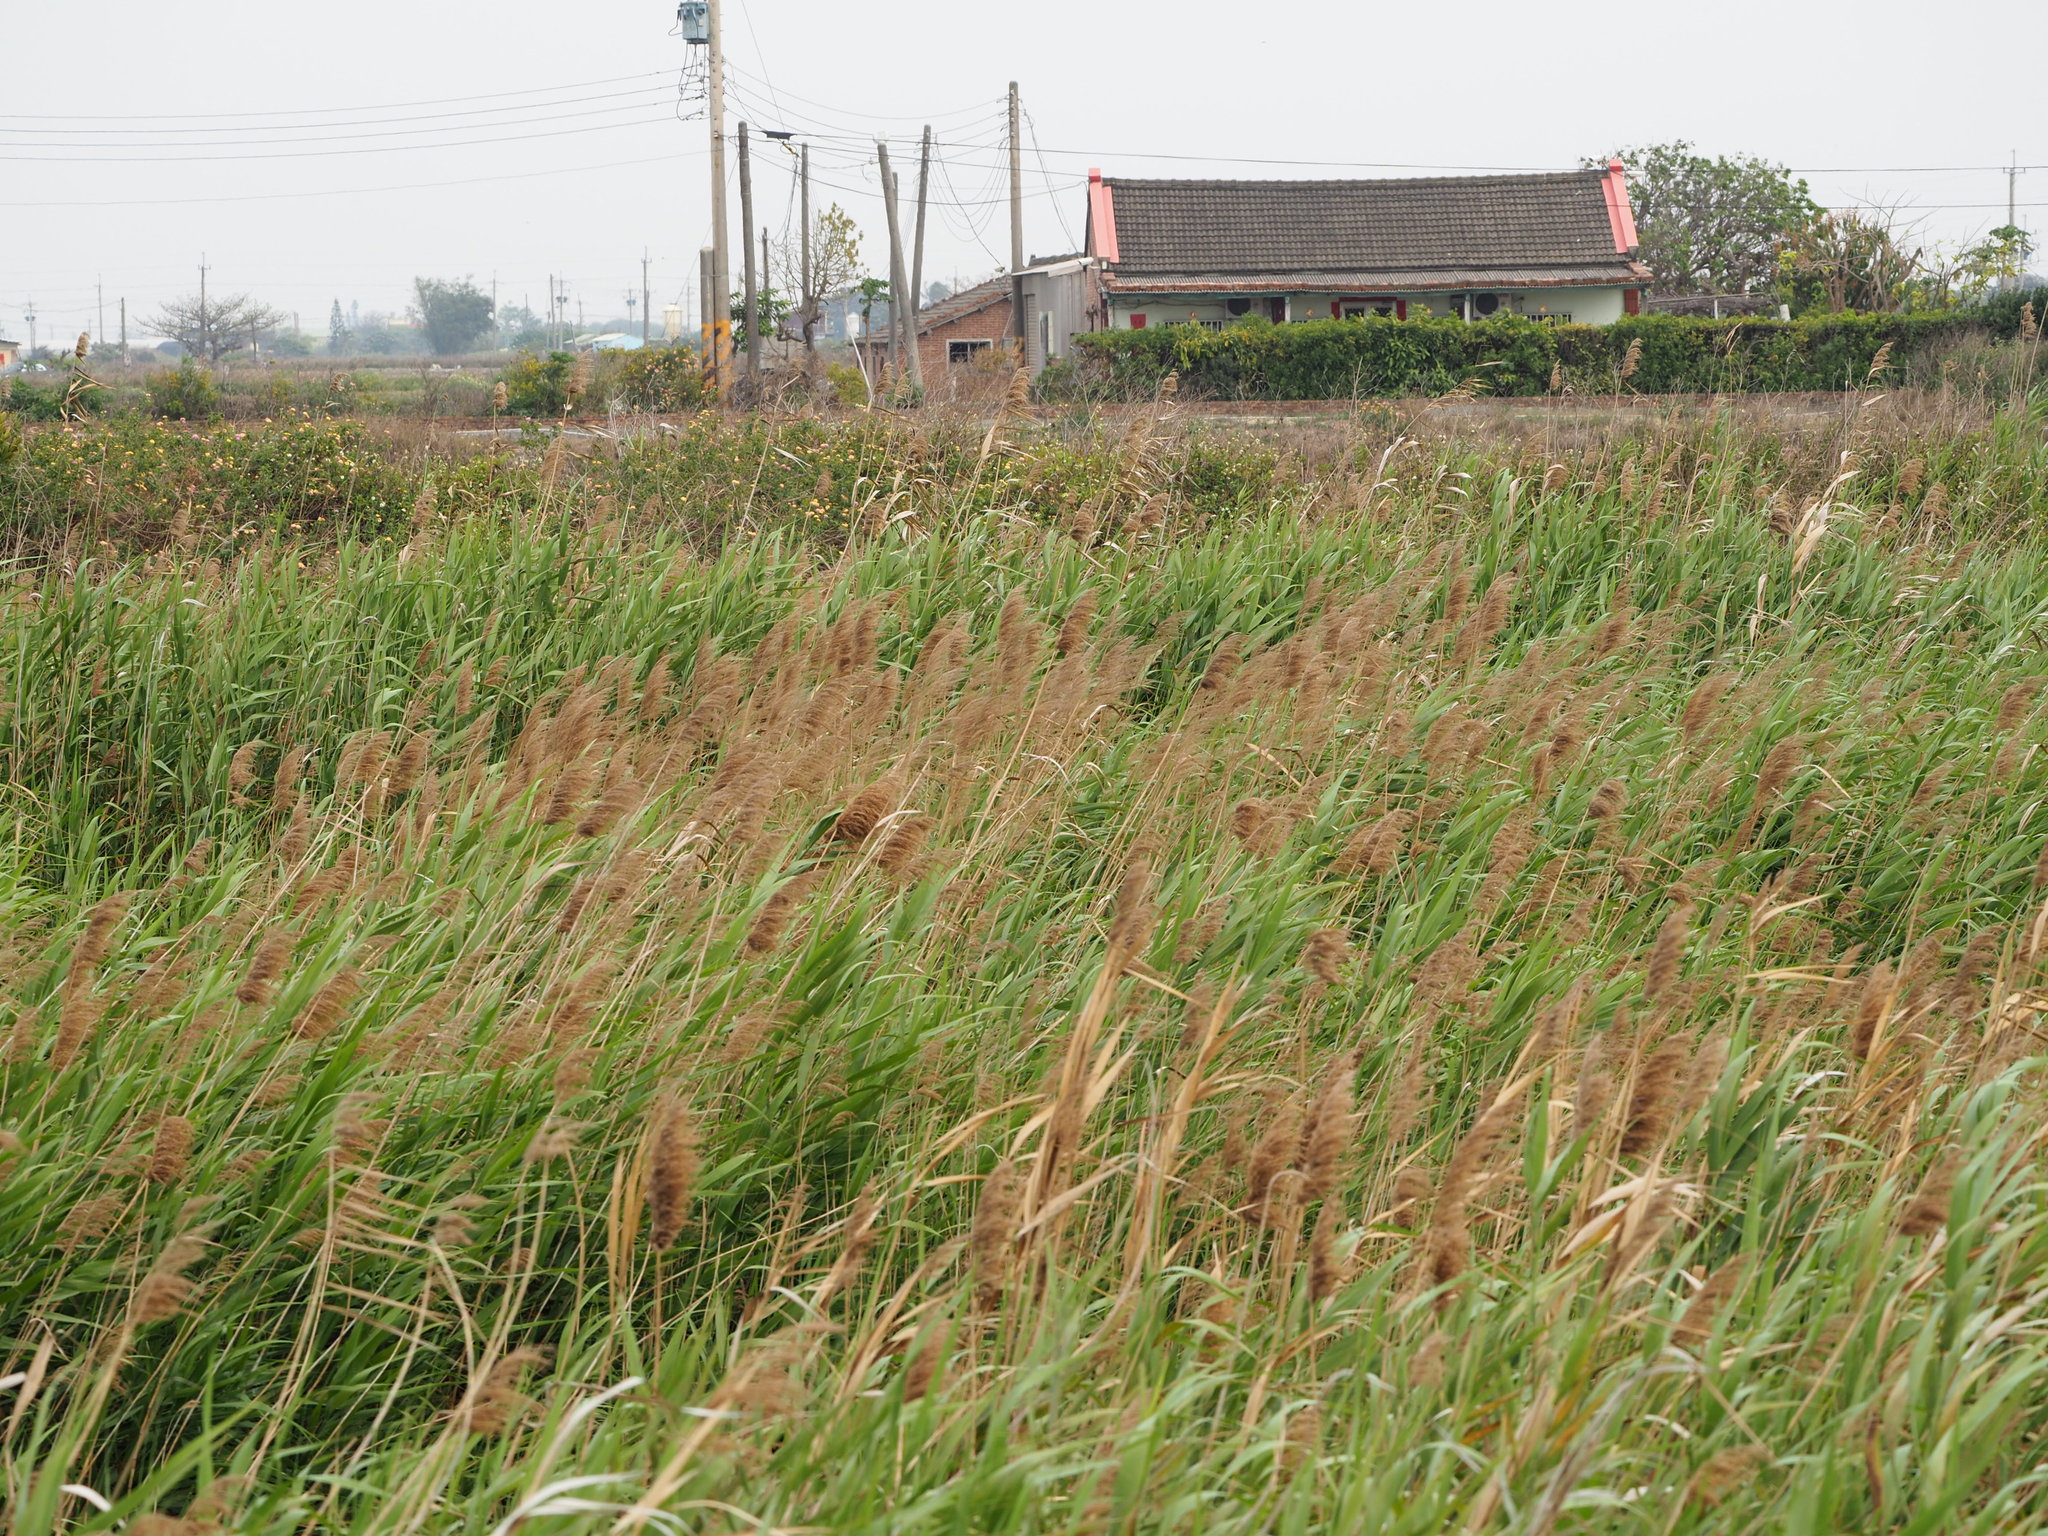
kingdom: Plantae
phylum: Tracheophyta
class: Liliopsida
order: Poales
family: Poaceae
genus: Phragmites
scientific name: Phragmites australis
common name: Common reed
